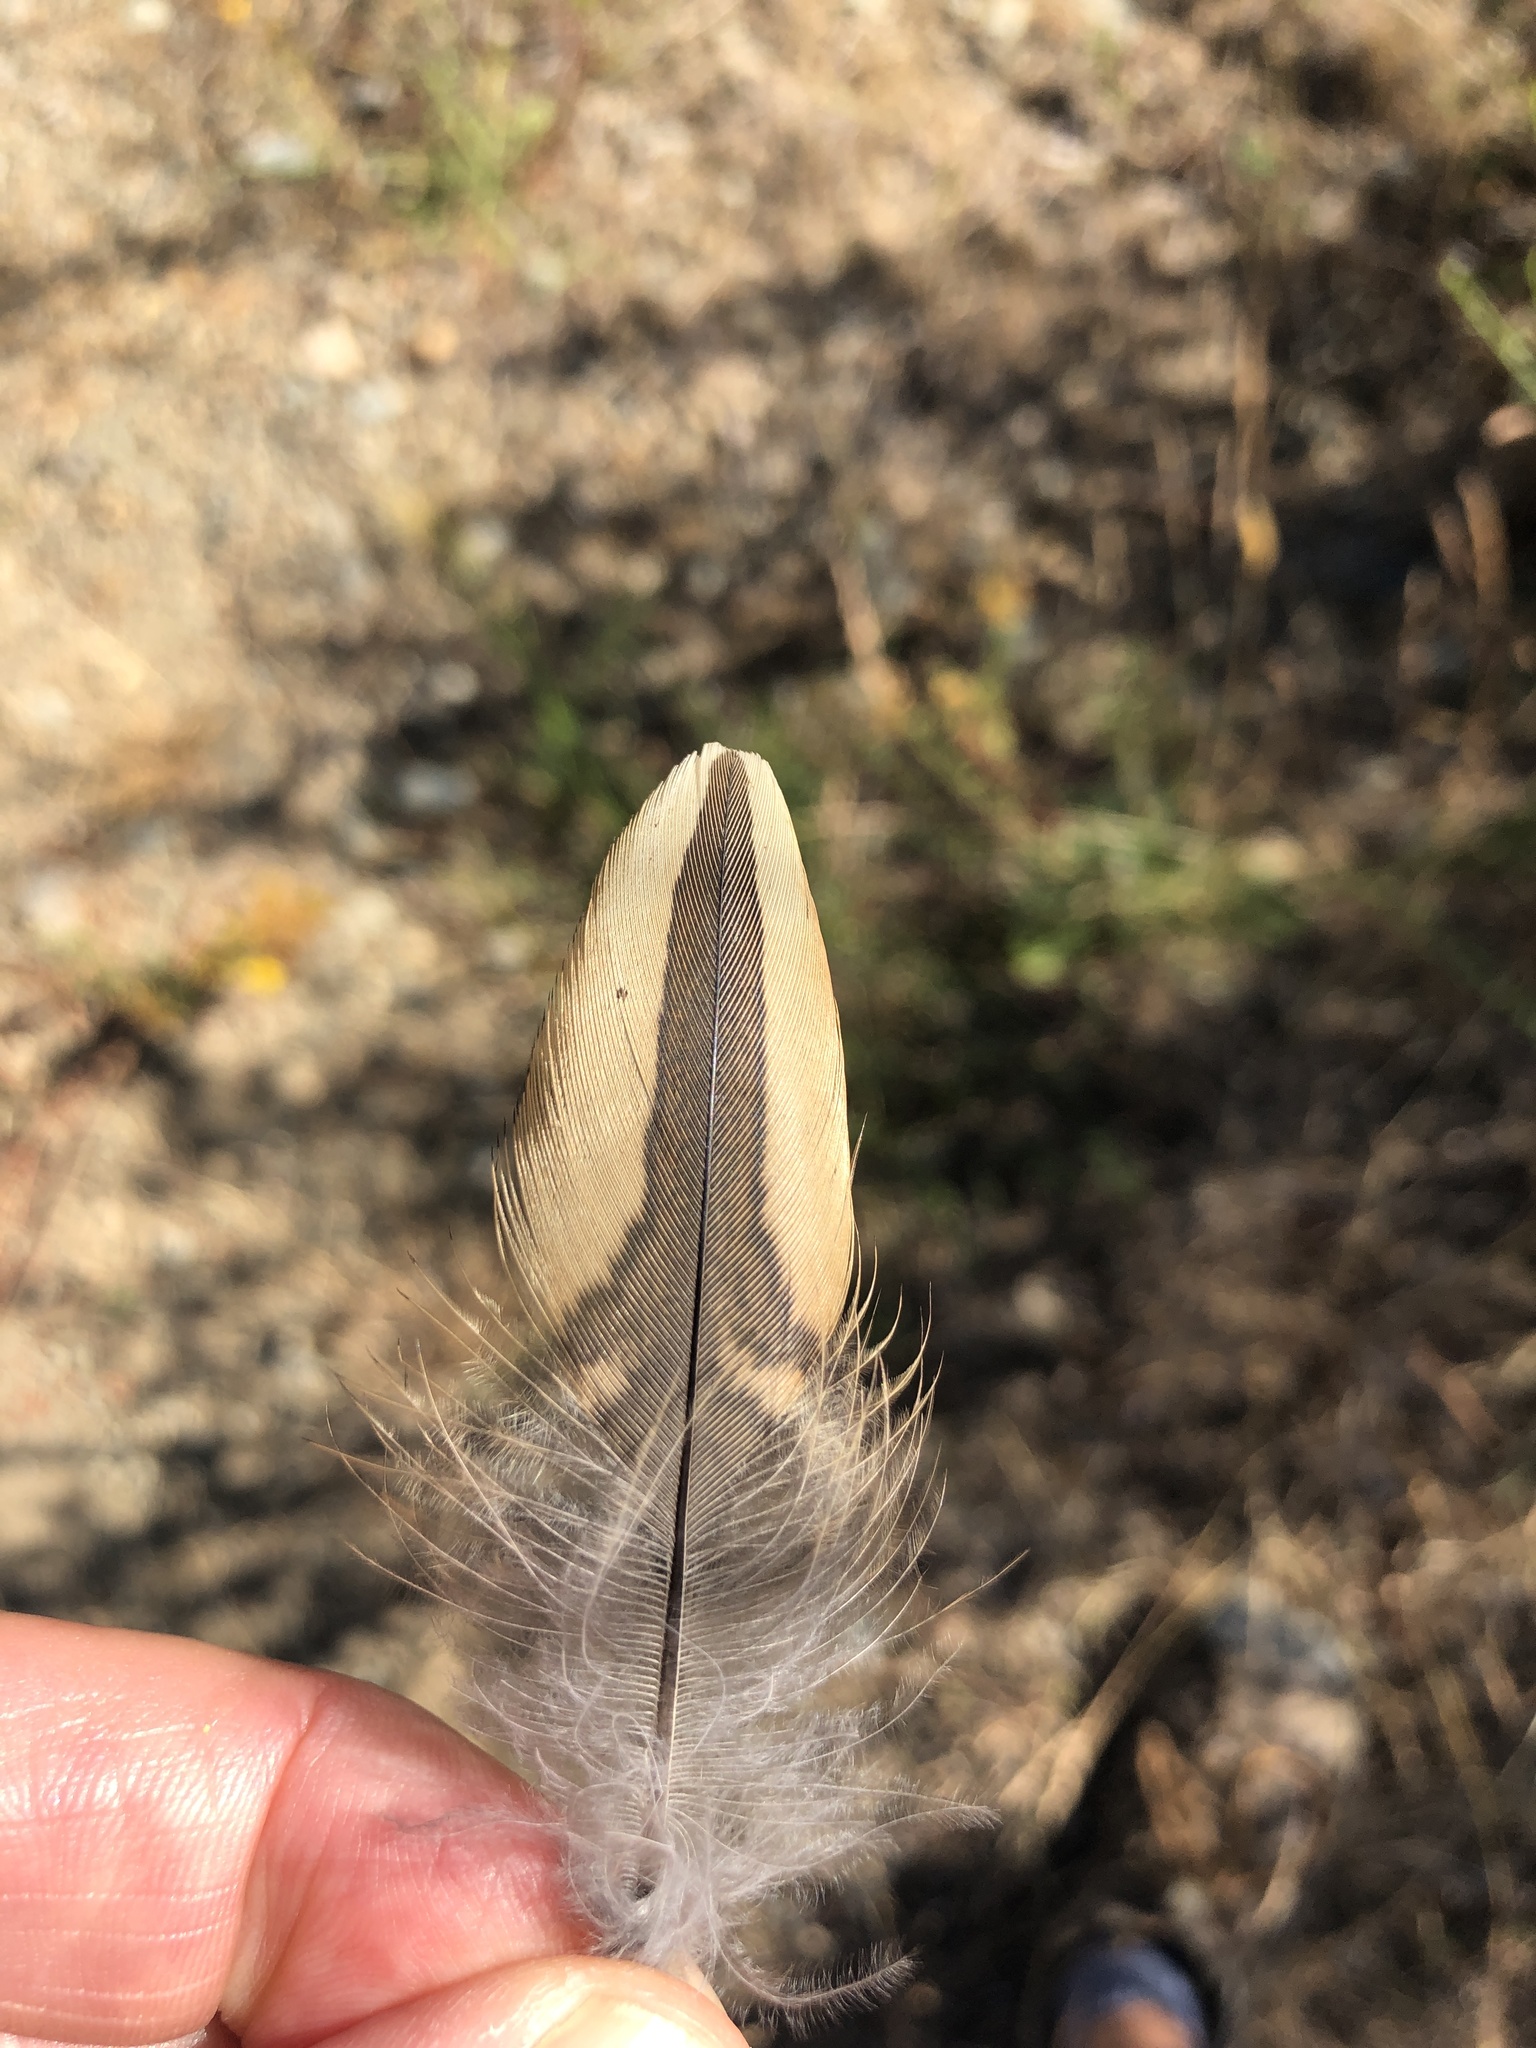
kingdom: Animalia
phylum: Chordata
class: Aves
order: Galliformes
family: Odontophoridae
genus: Callipepla
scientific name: Callipepla californica
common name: California quail
